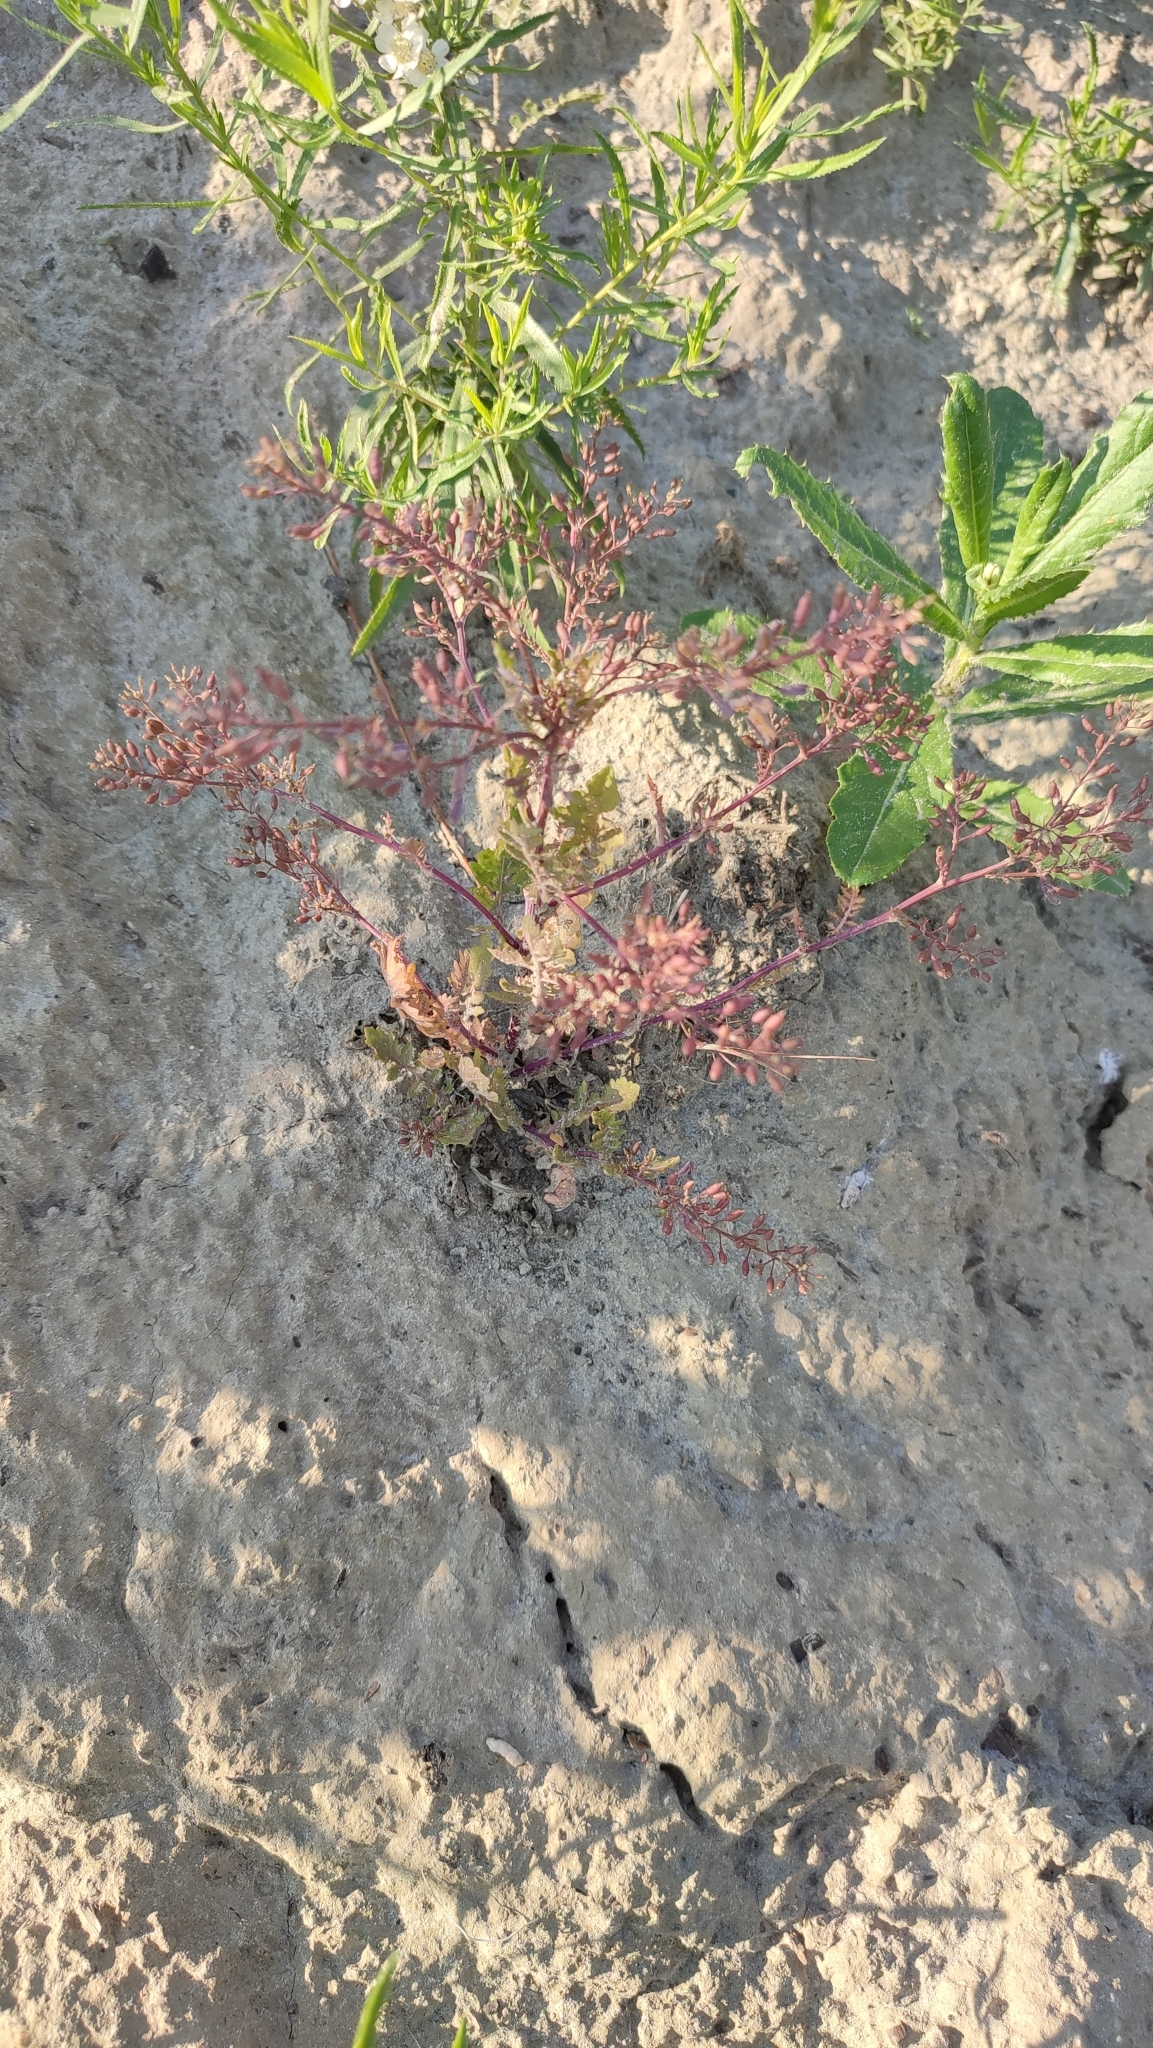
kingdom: Plantae
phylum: Tracheophyta
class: Magnoliopsida
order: Brassicales
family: Brassicaceae
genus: Rorippa
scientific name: Rorippa palustris
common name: Marsh yellow-cress
